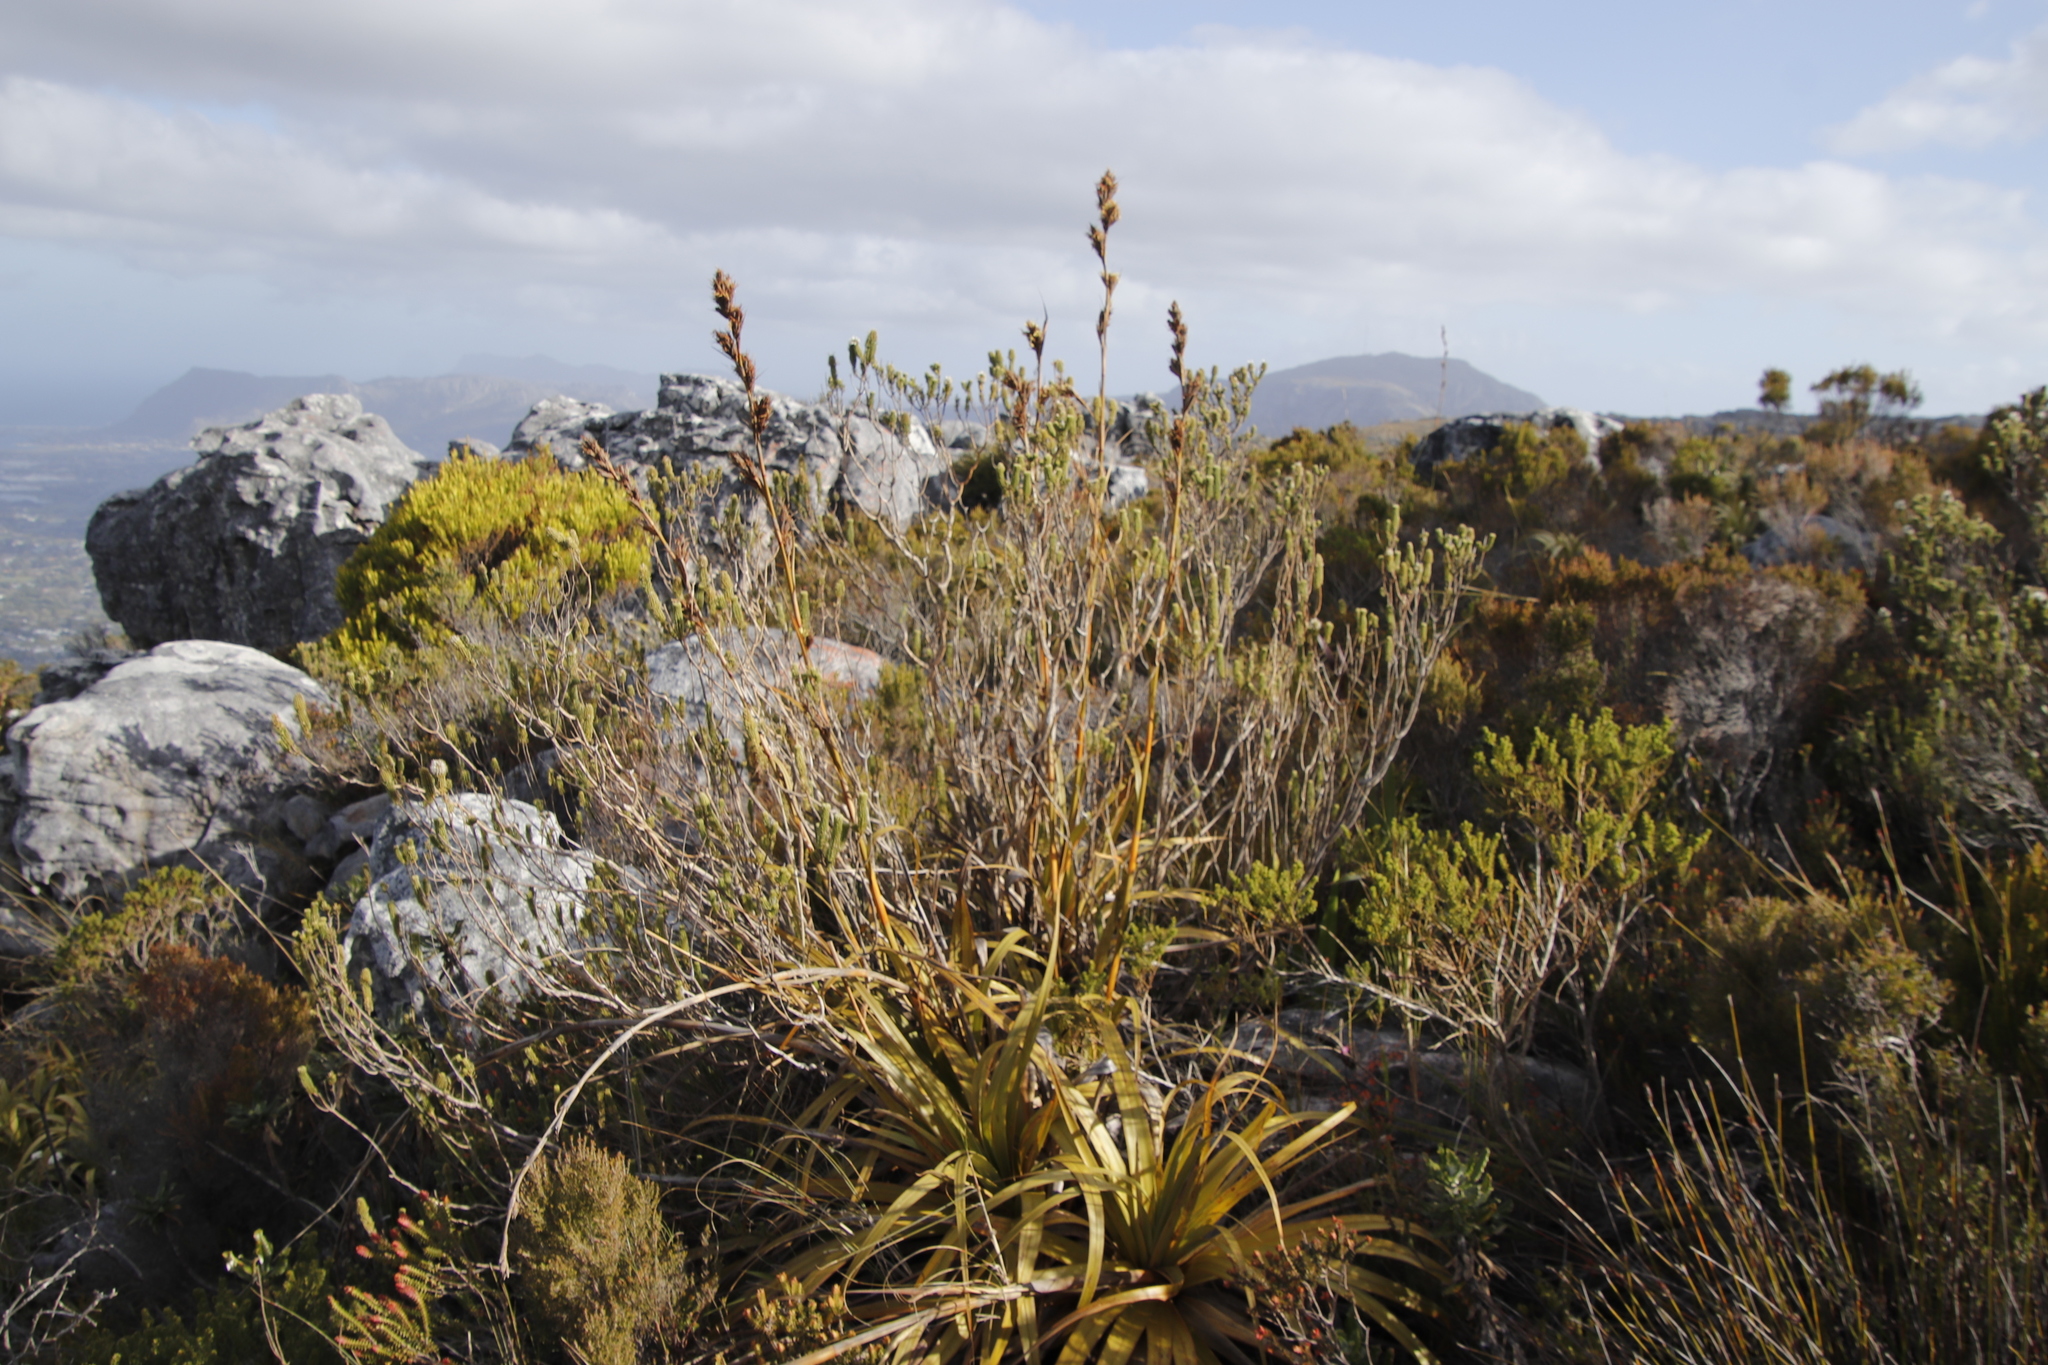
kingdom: Plantae
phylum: Tracheophyta
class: Liliopsida
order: Poales
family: Cyperaceae
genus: Tetraria
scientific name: Tetraria thermalis
